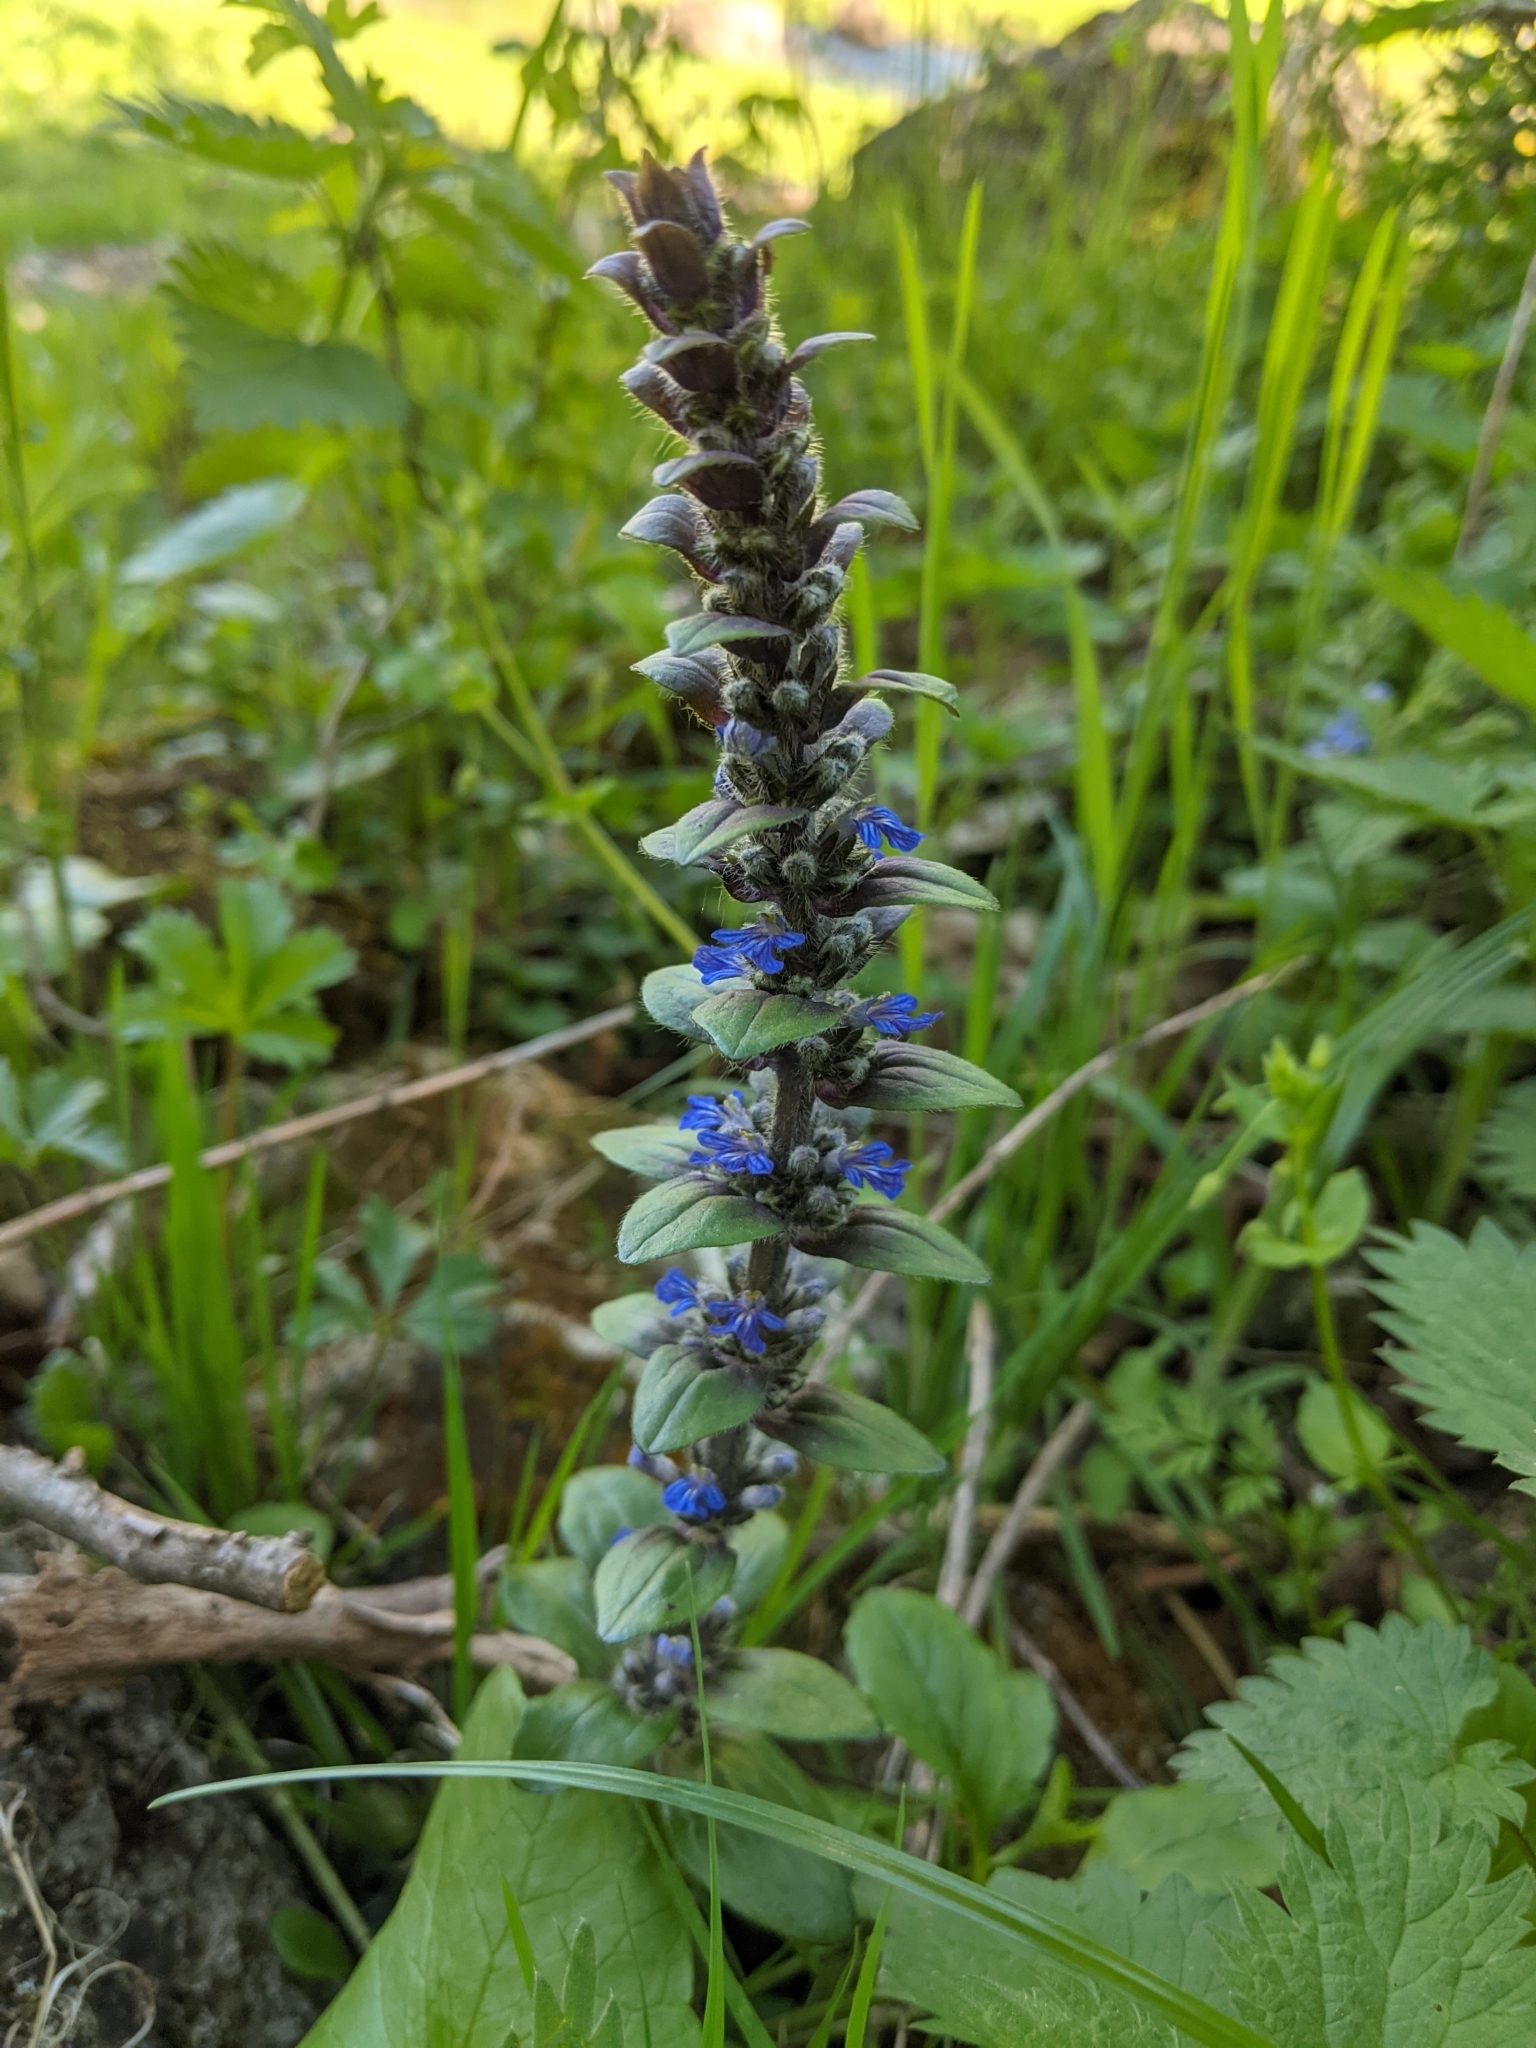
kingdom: Plantae
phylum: Tracheophyta
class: Magnoliopsida
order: Lamiales
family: Lamiaceae
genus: Ajuga
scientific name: Ajuga reptans
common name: Bugle
